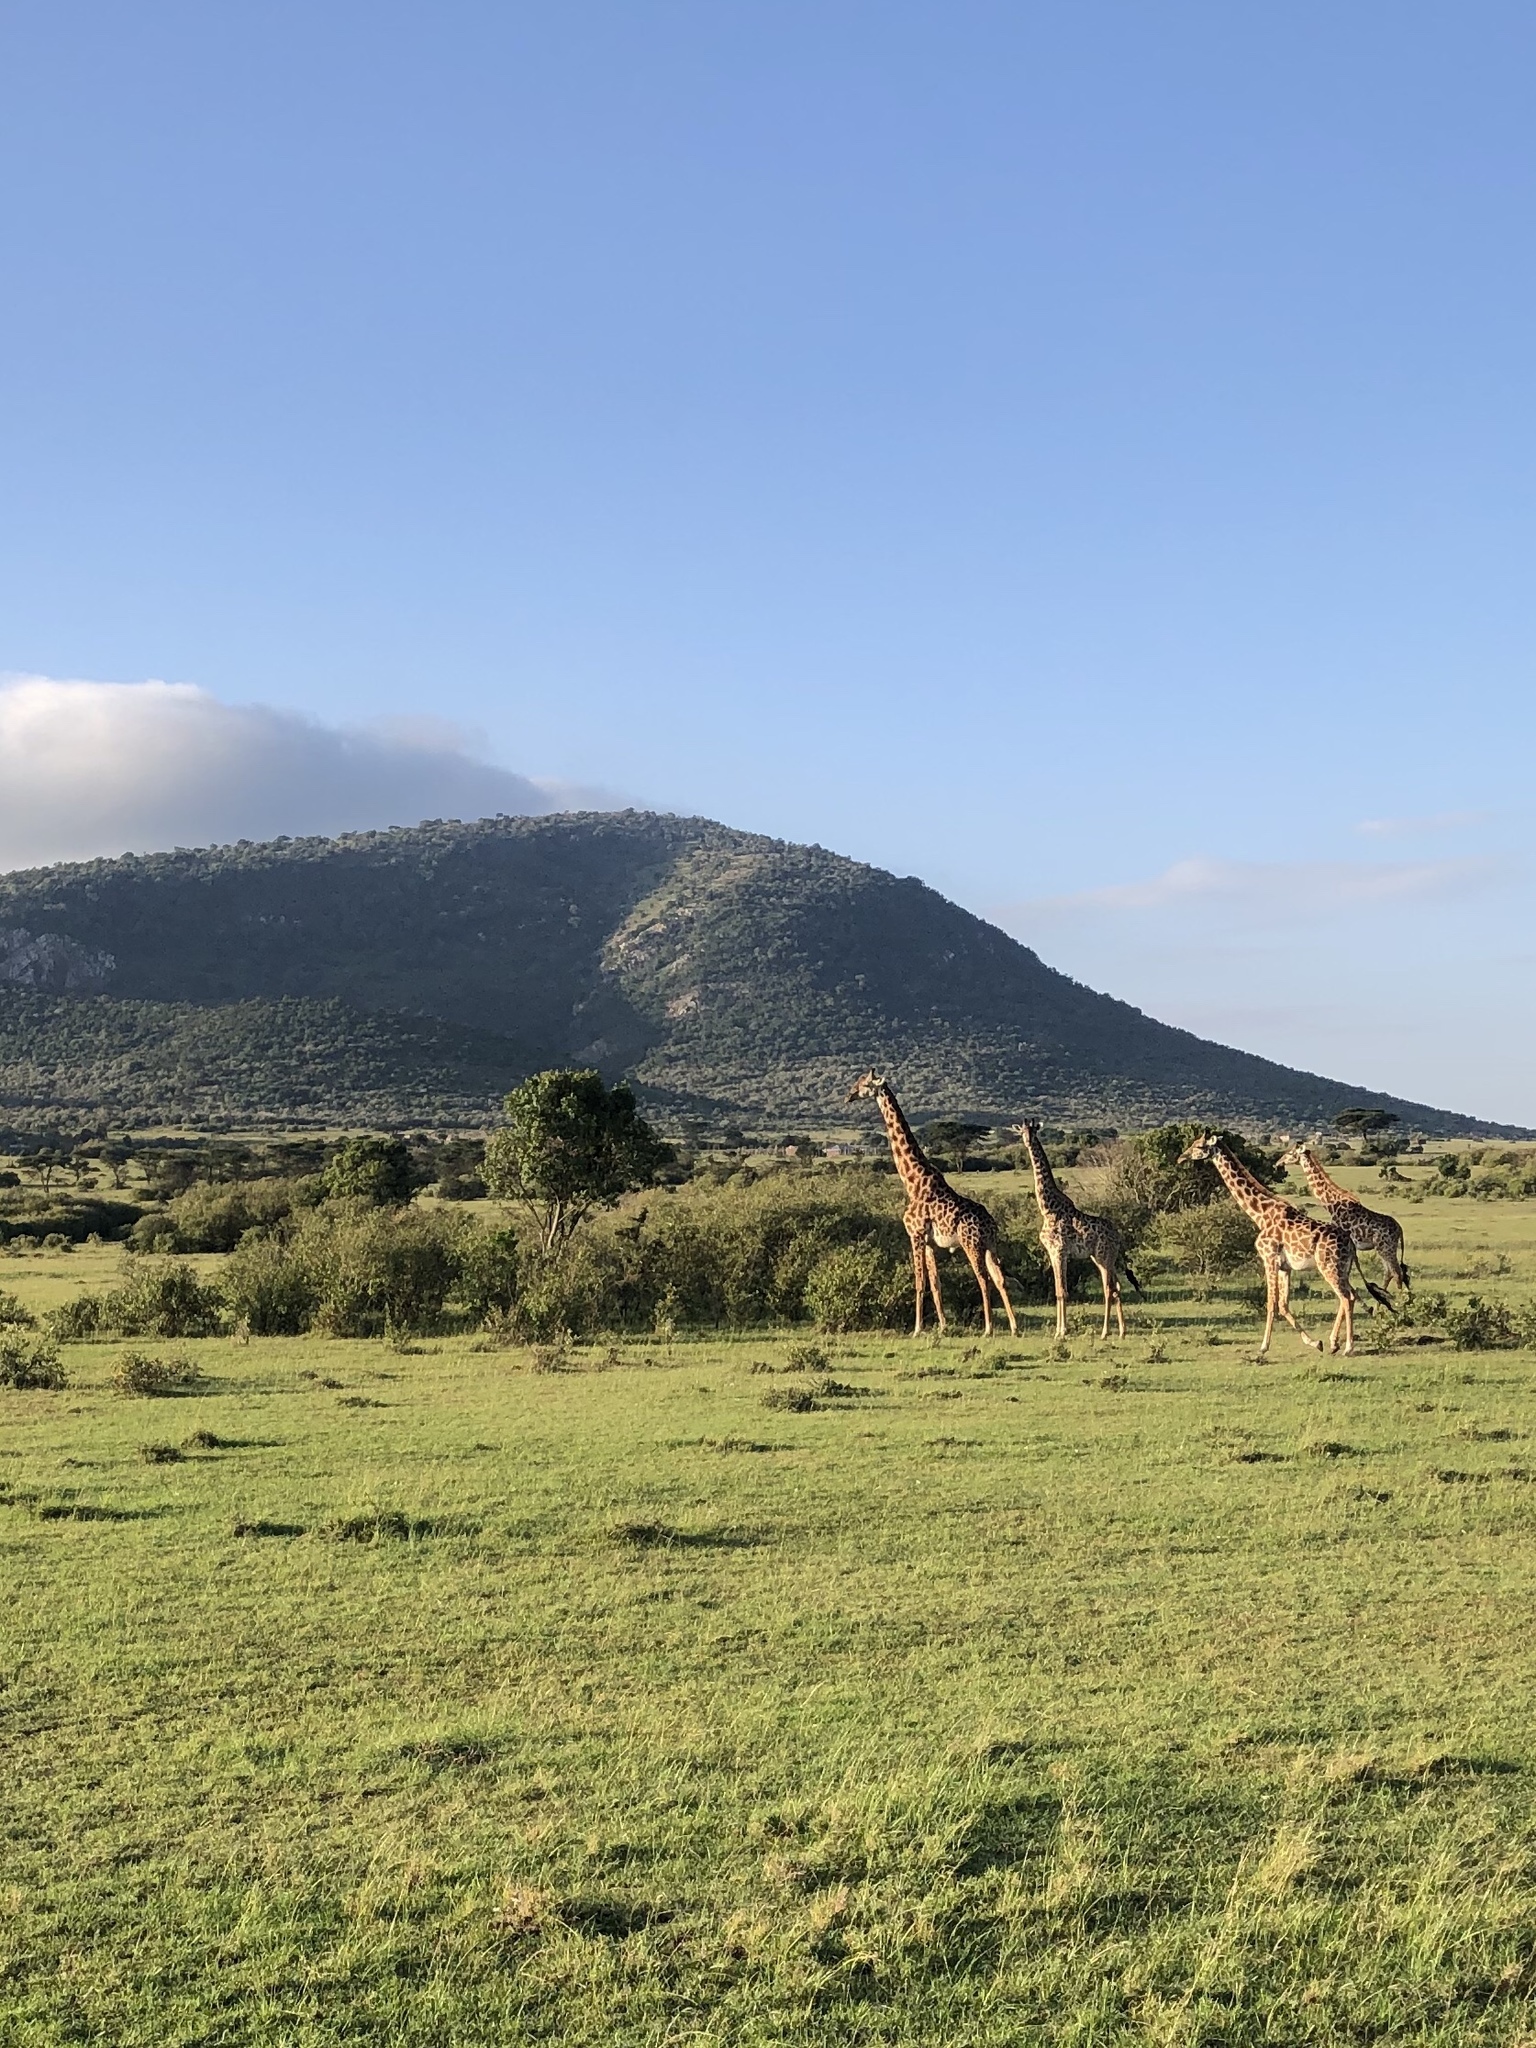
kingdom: Animalia
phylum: Chordata
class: Mammalia
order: Artiodactyla
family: Giraffidae
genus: Giraffa
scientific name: Giraffa tippelskirchi
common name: Masai giraffe
